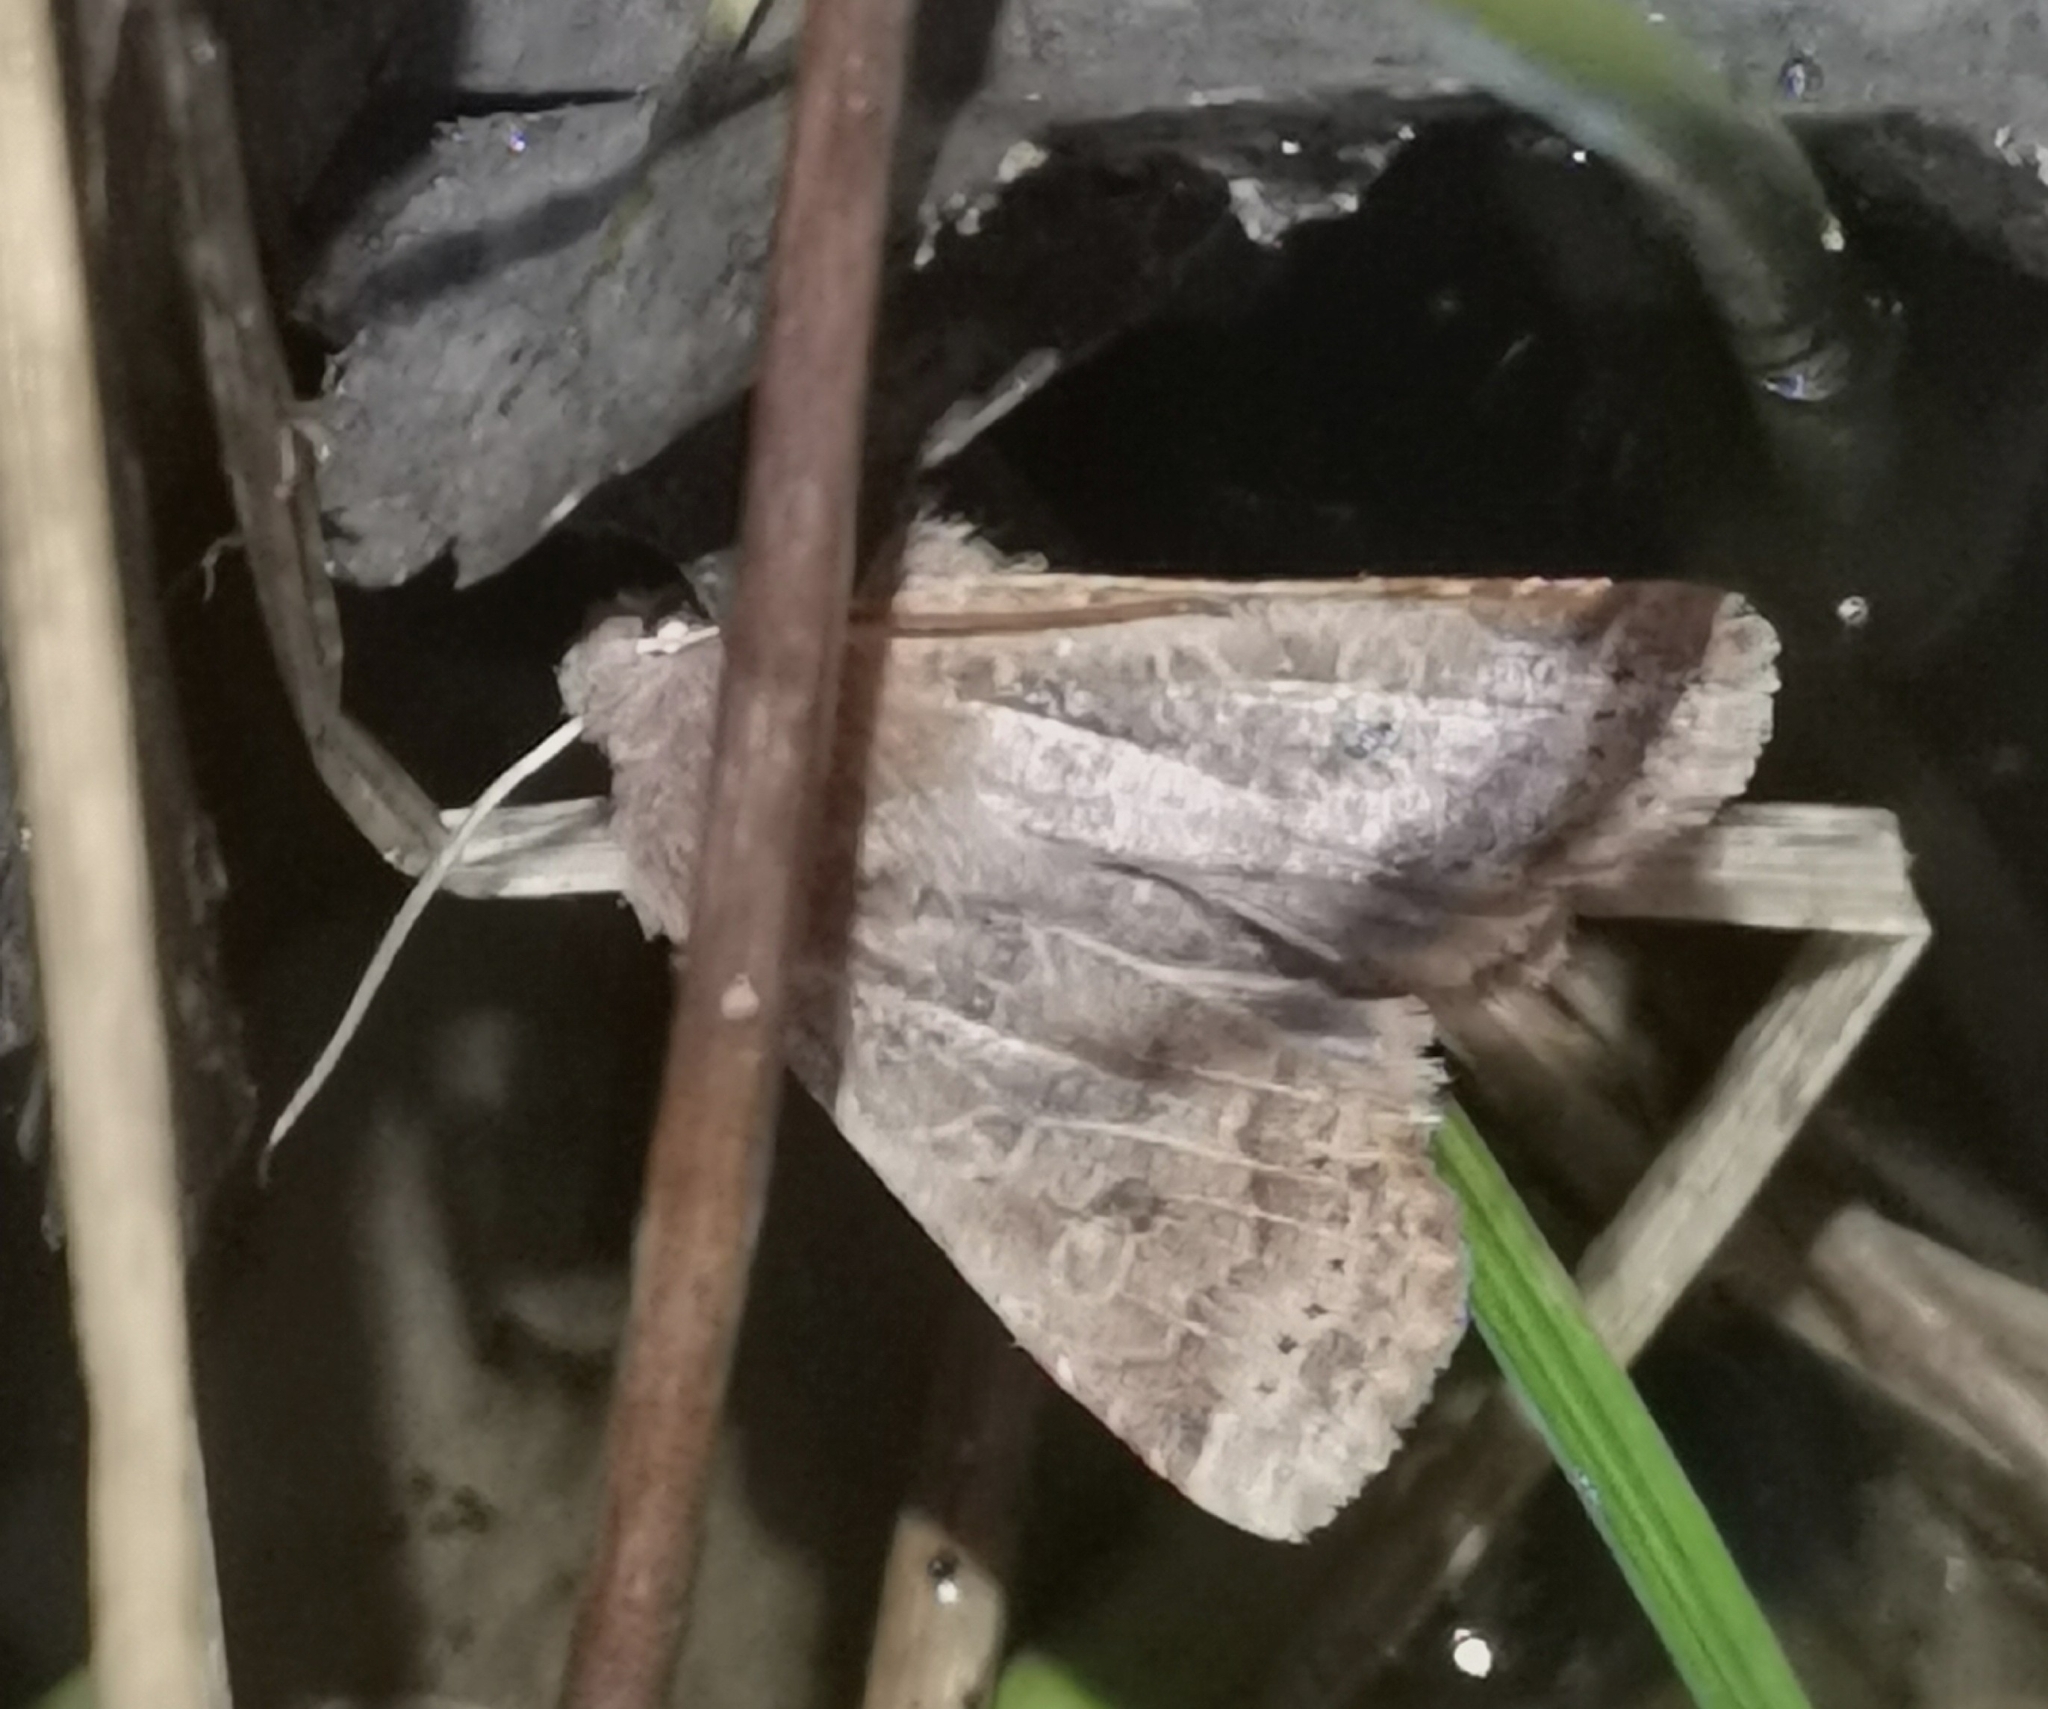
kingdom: Animalia
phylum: Arthropoda
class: Insecta
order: Lepidoptera
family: Noctuidae
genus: Conistra
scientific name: Conistra vaccinii
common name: Chestnut
